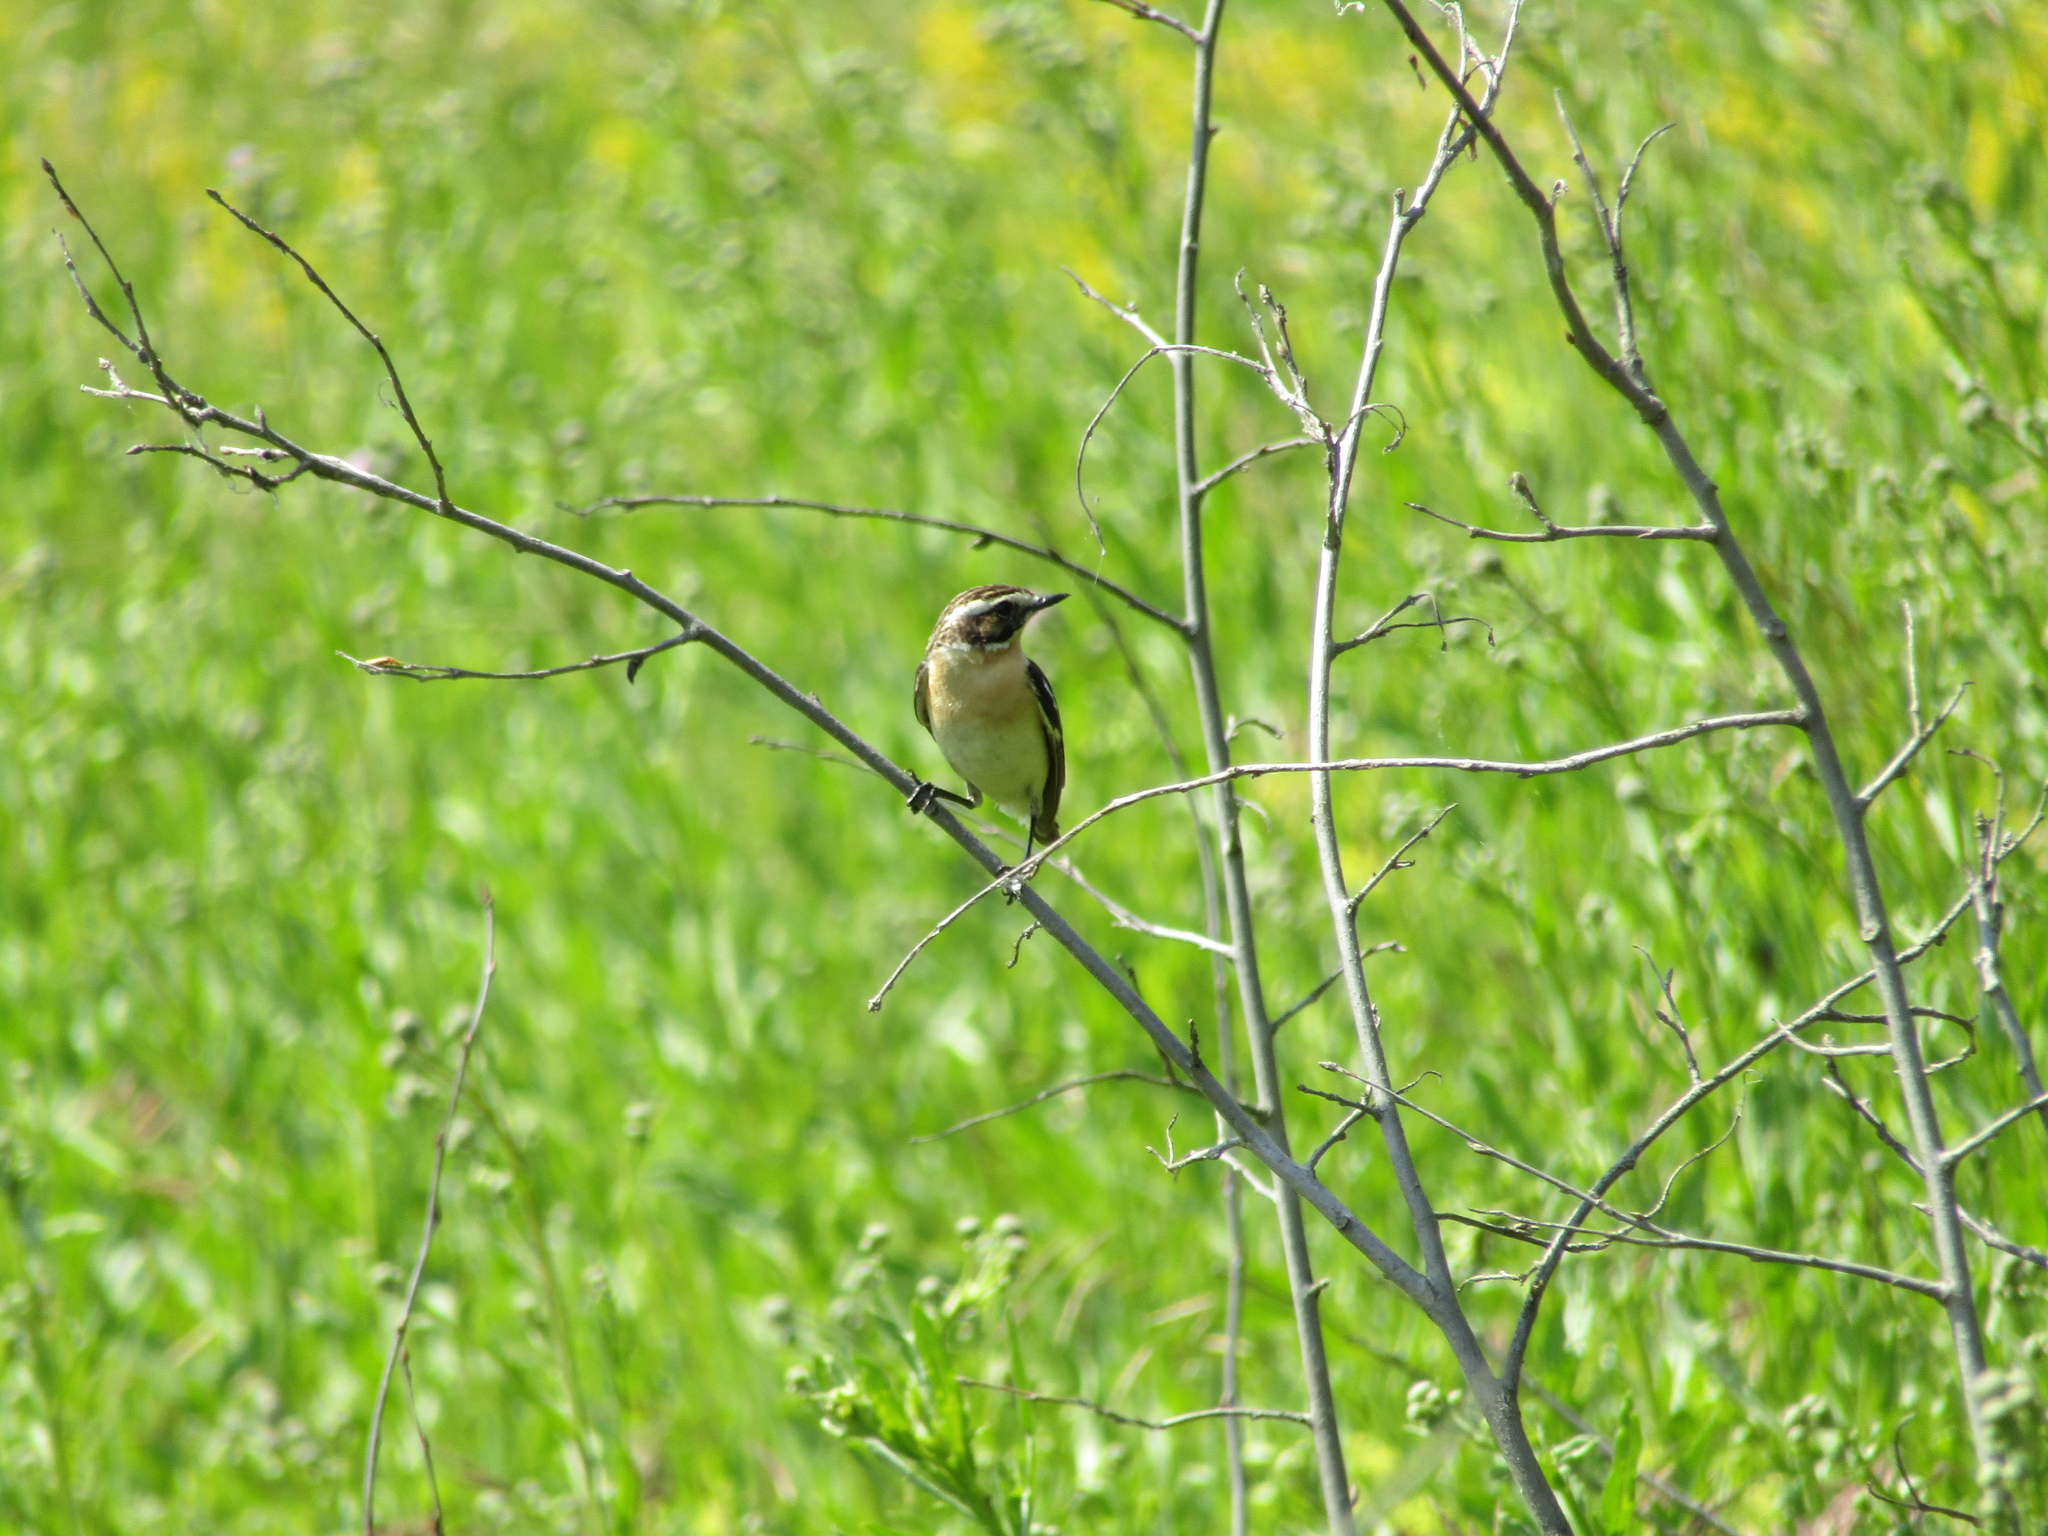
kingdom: Animalia
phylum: Chordata
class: Aves
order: Passeriformes
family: Muscicapidae
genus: Saxicola
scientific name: Saxicola rubetra
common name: Whinchat
